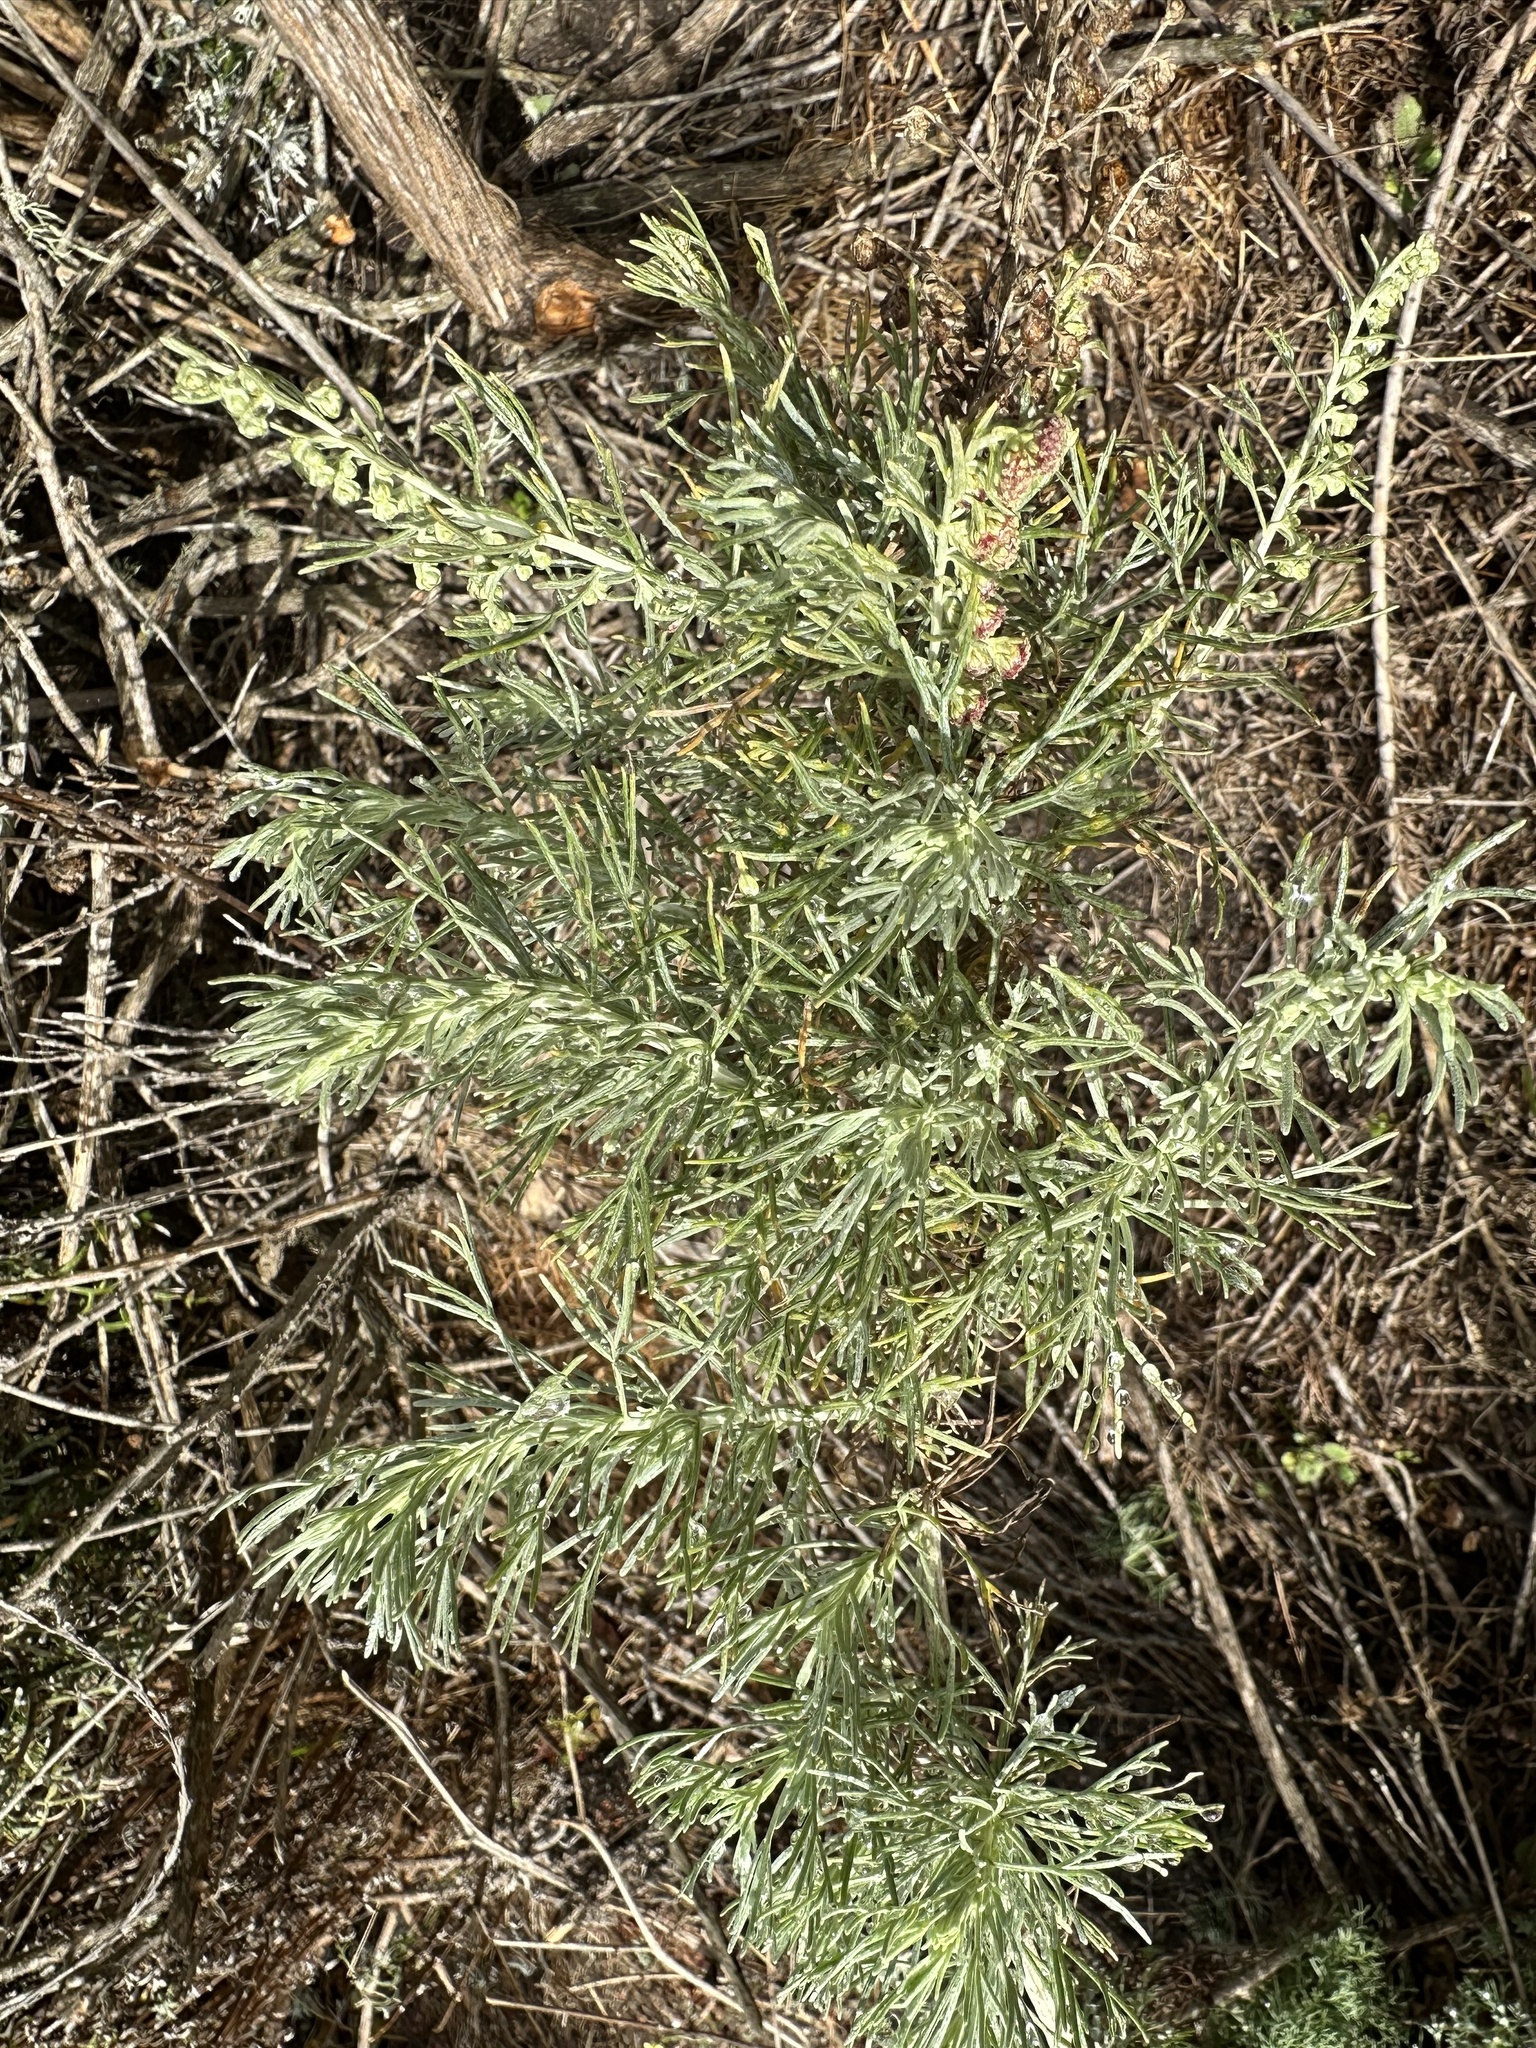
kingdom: Plantae
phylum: Tracheophyta
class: Magnoliopsida
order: Asterales
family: Asteraceae
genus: Artemisia
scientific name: Artemisia californica
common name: California sagebrush
